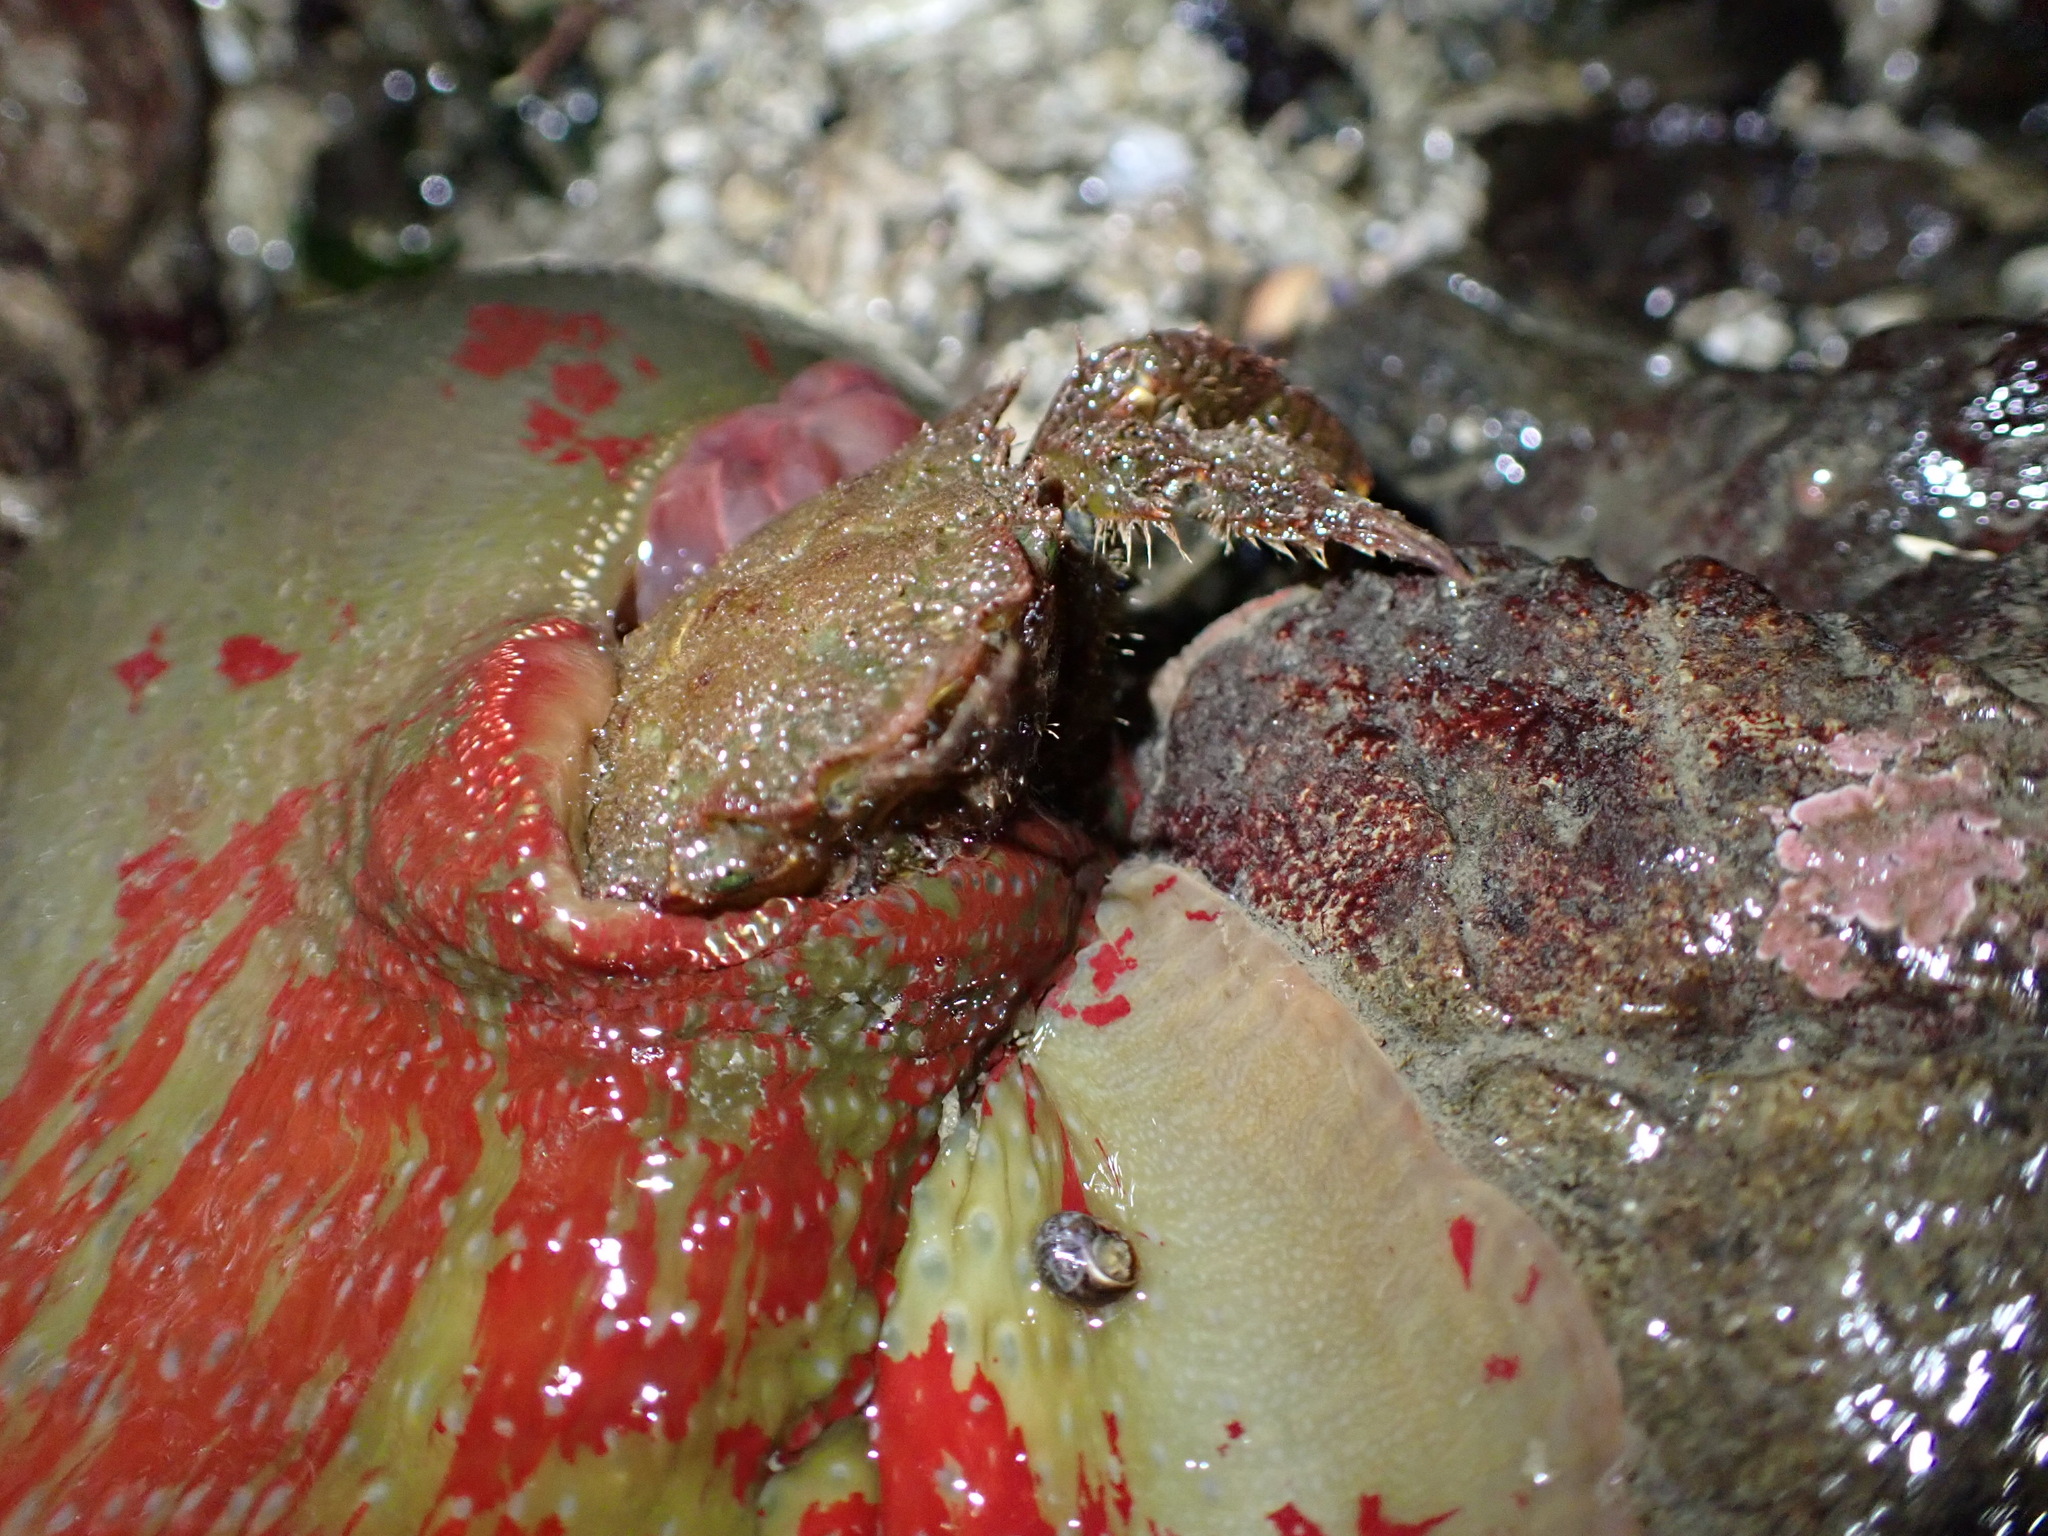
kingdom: Animalia
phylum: Cnidaria
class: Anthozoa
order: Actiniaria
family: Actiniidae
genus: Urticina
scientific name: Urticina grebelnyi
